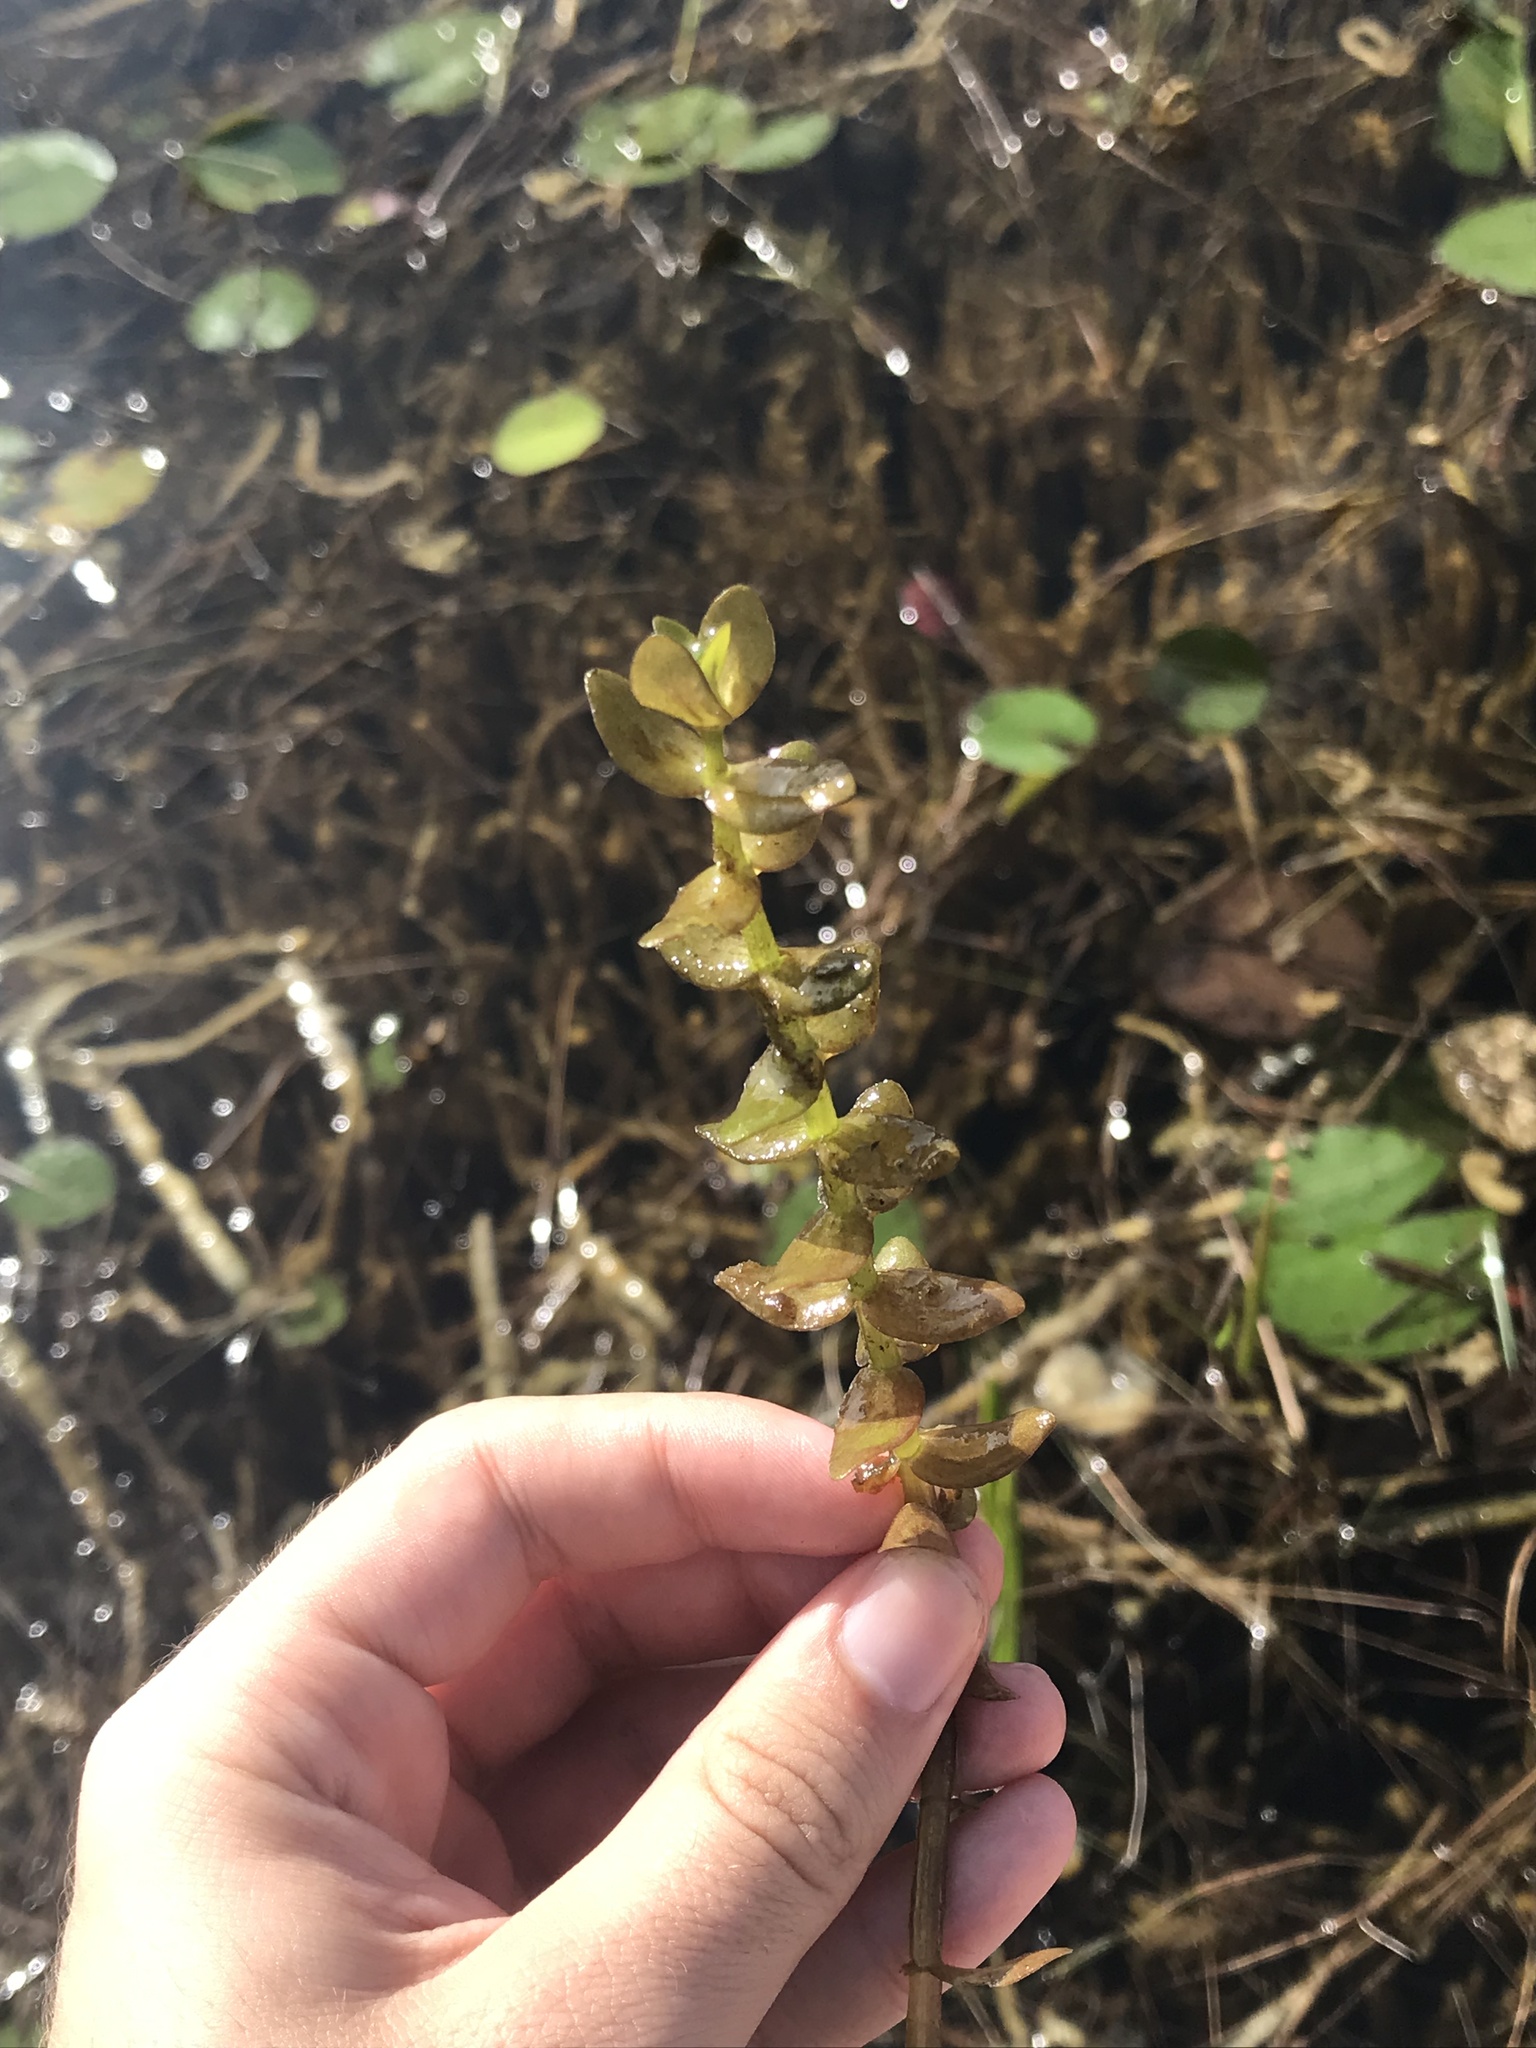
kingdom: Plantae
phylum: Tracheophyta
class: Magnoliopsida
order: Lamiales
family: Plantaginaceae
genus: Bacopa
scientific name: Bacopa caroliniana
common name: Lemon bacopa
